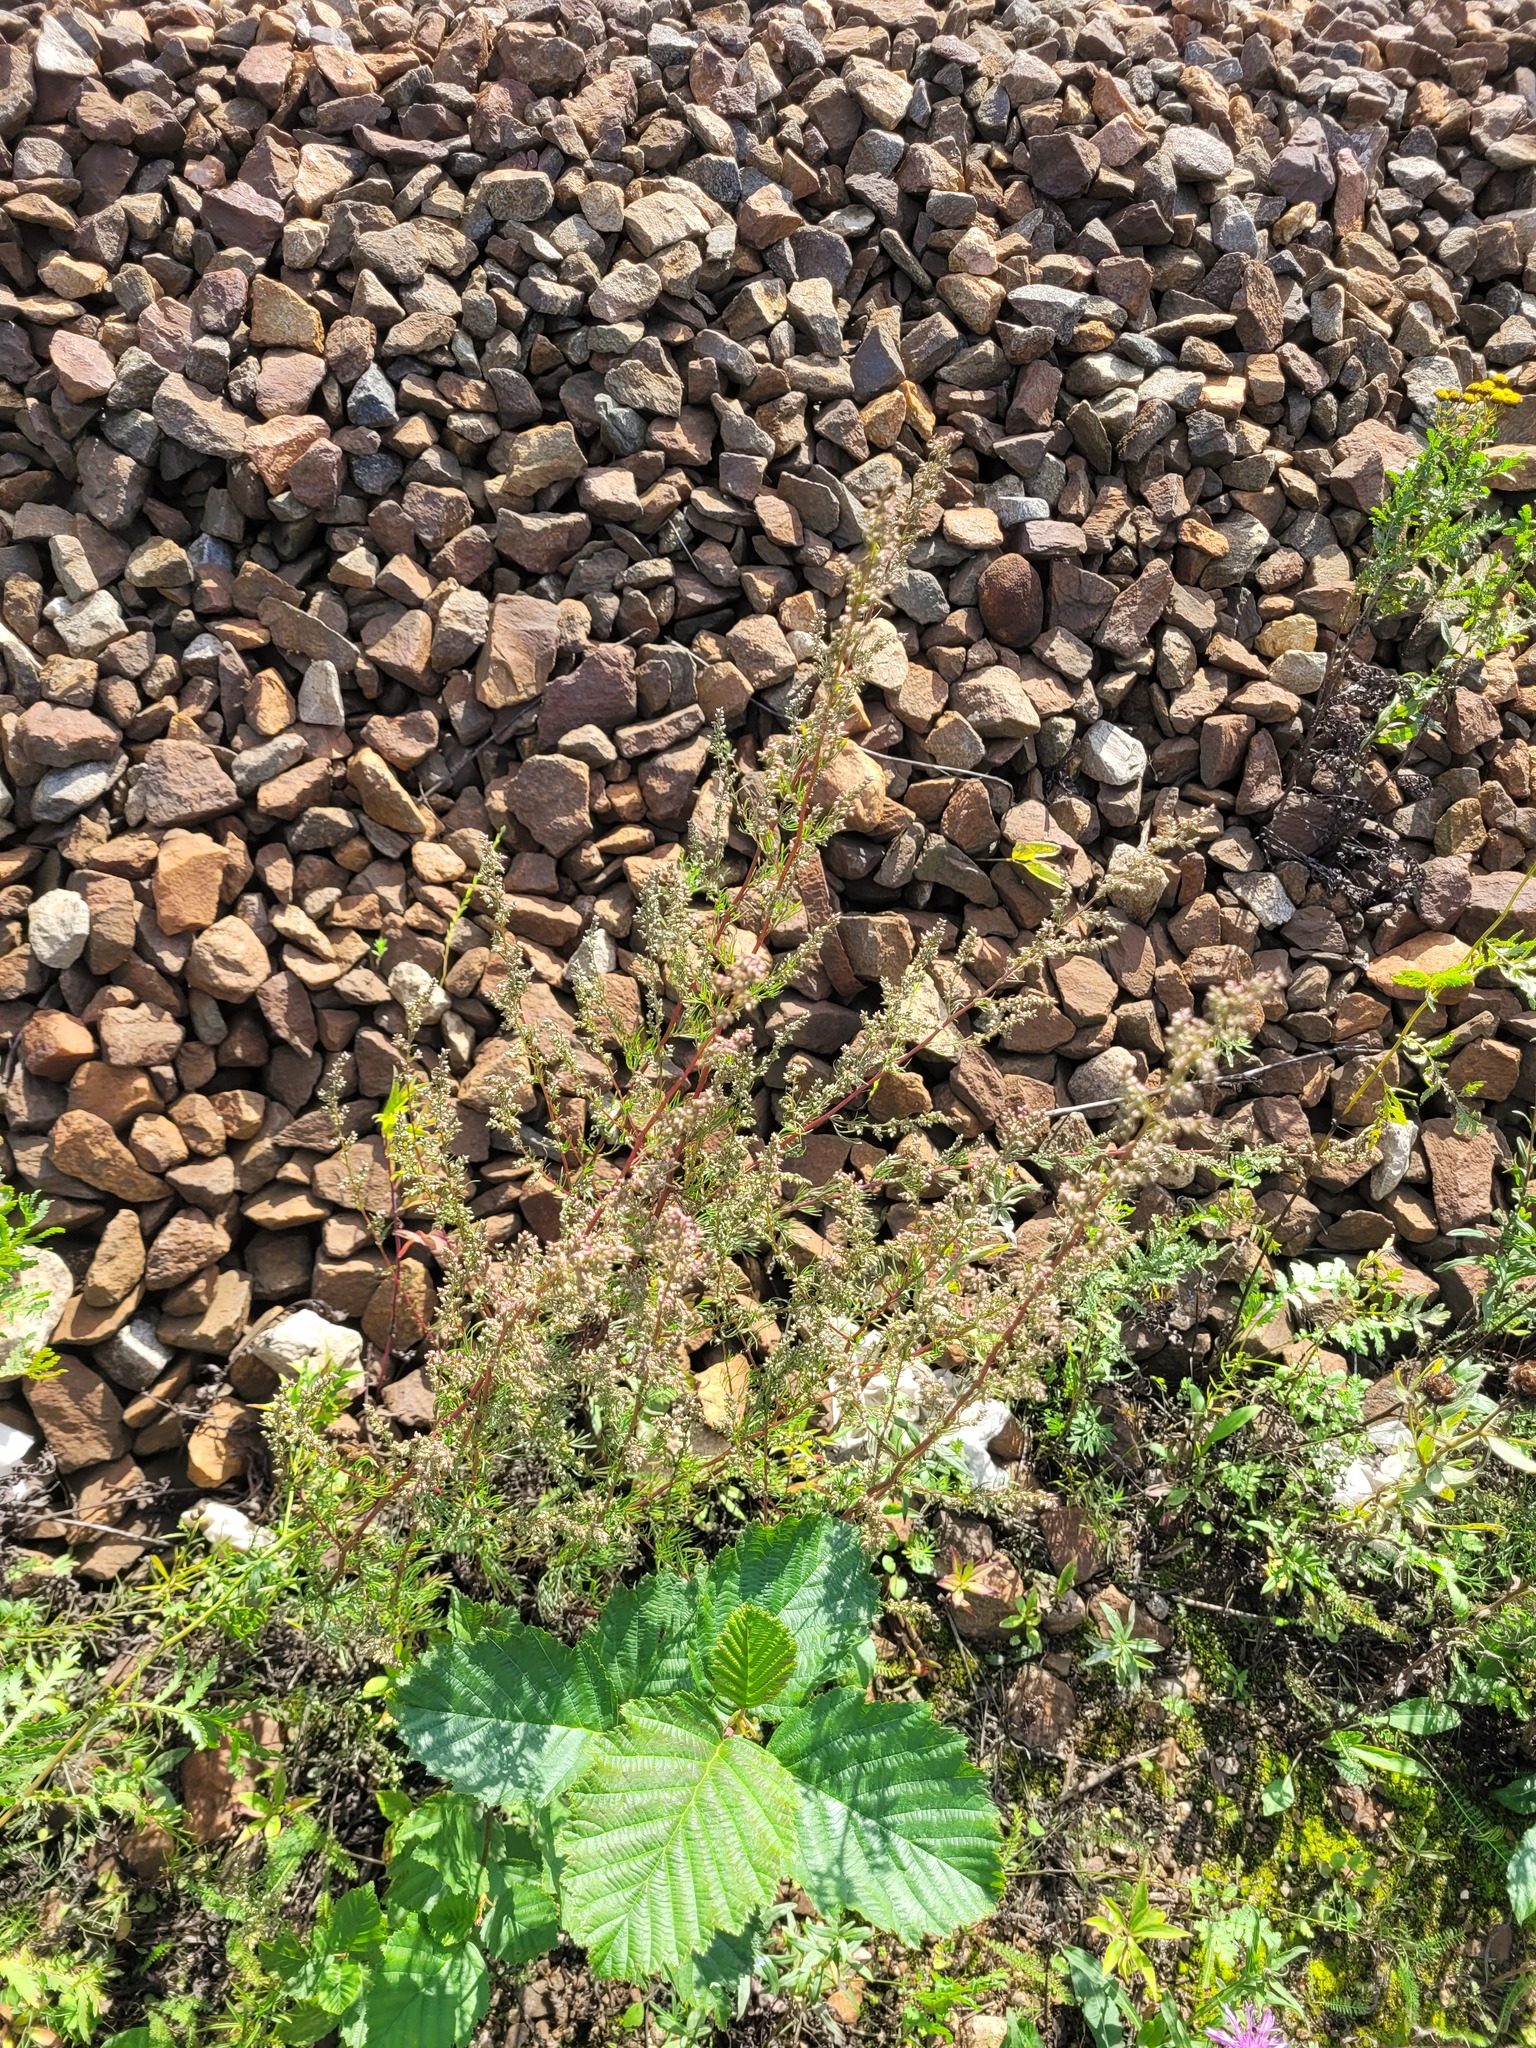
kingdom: Plantae
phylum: Tracheophyta
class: Magnoliopsida
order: Asterales
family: Asteraceae
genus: Artemisia
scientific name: Artemisia campestris
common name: Field wormwood
